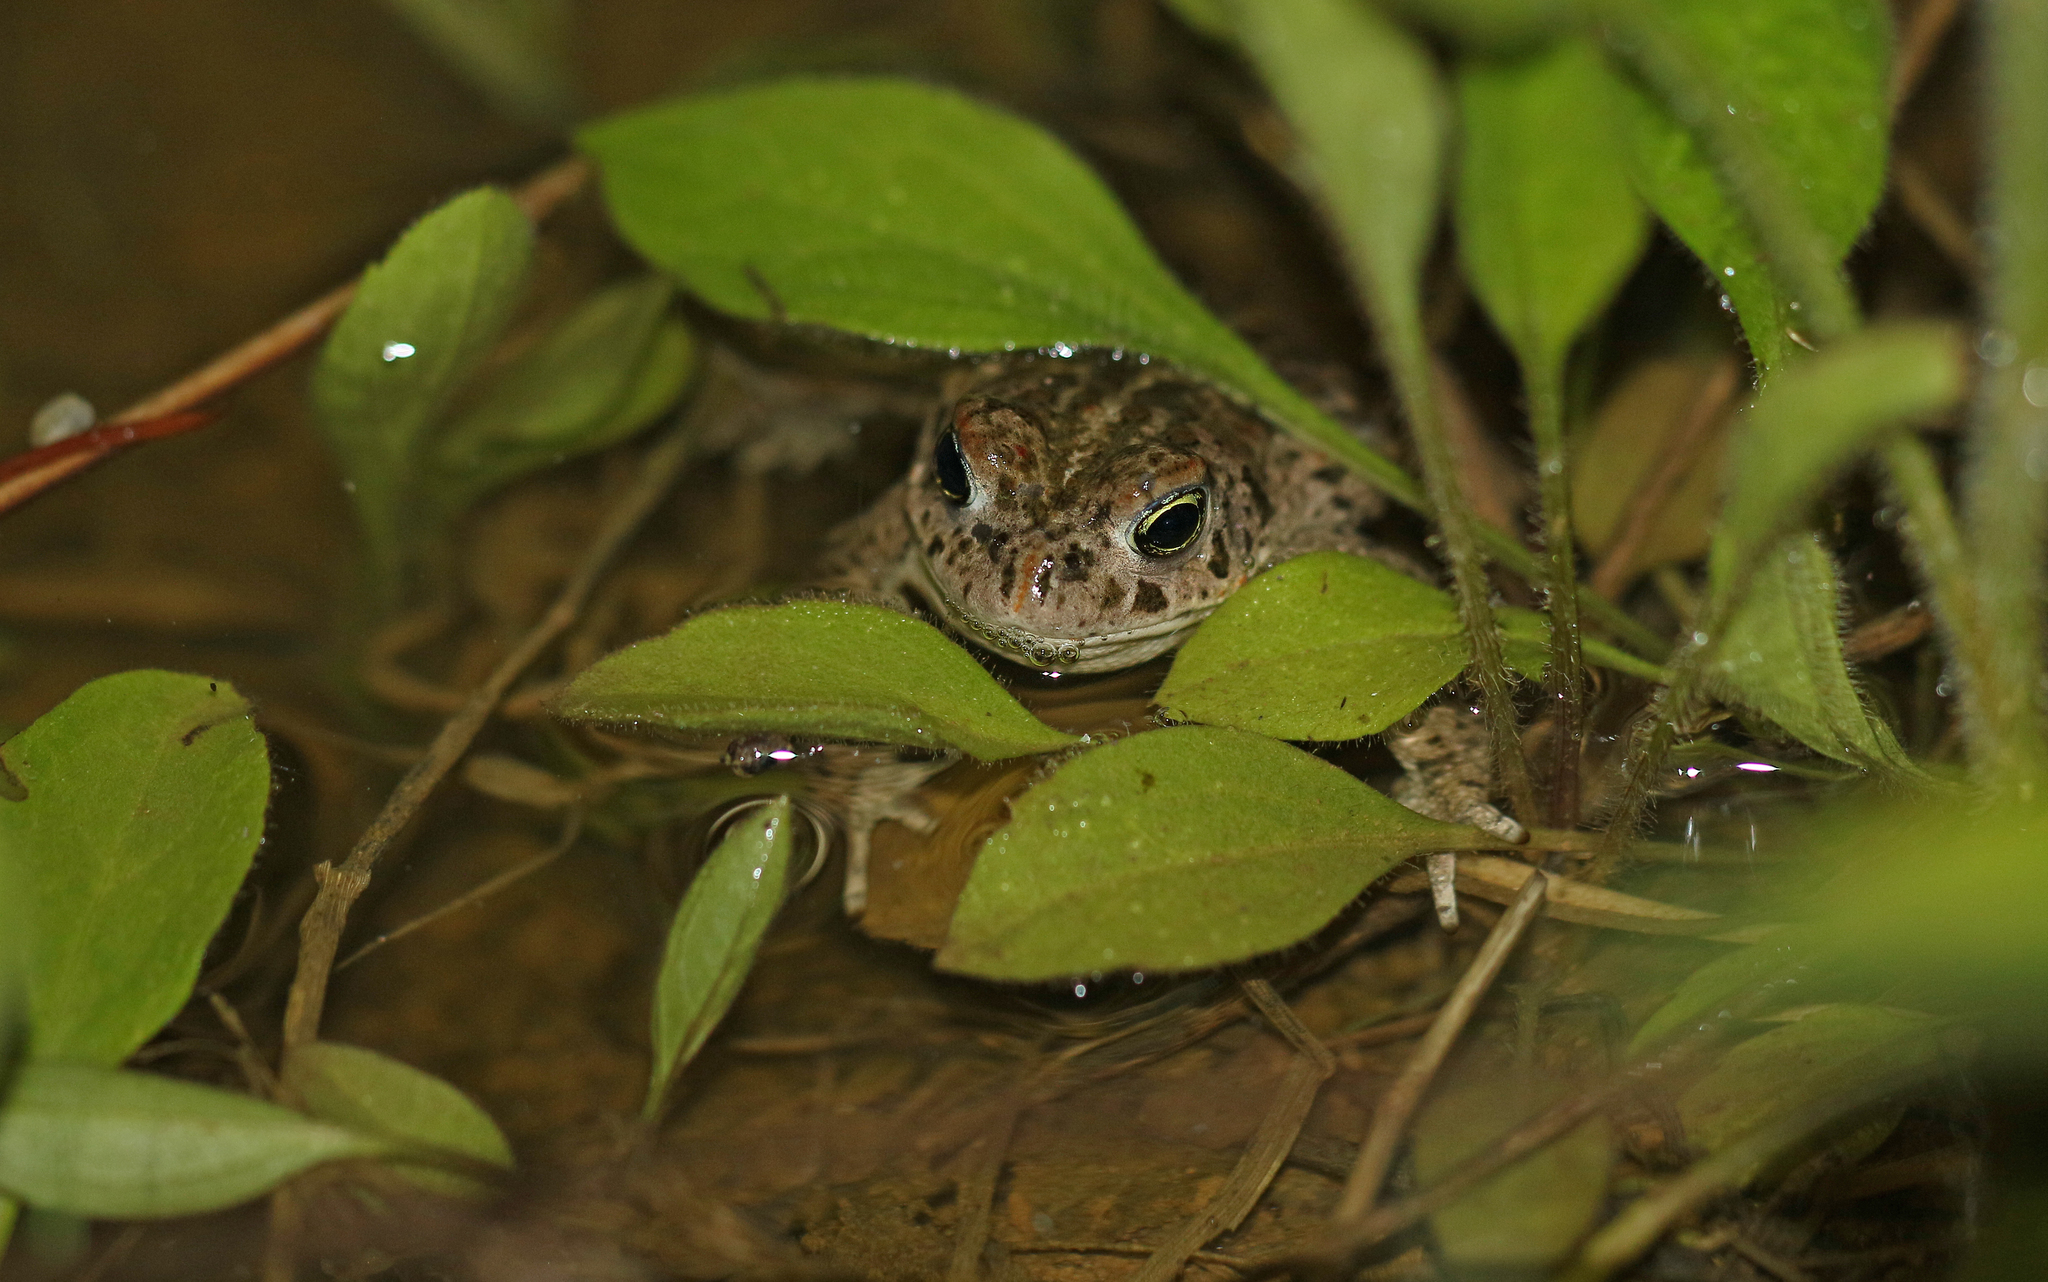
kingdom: Animalia
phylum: Chordata
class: Amphibia
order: Anura
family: Bufonidae
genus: Epidalea
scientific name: Epidalea calamita
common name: Natterjack toad
